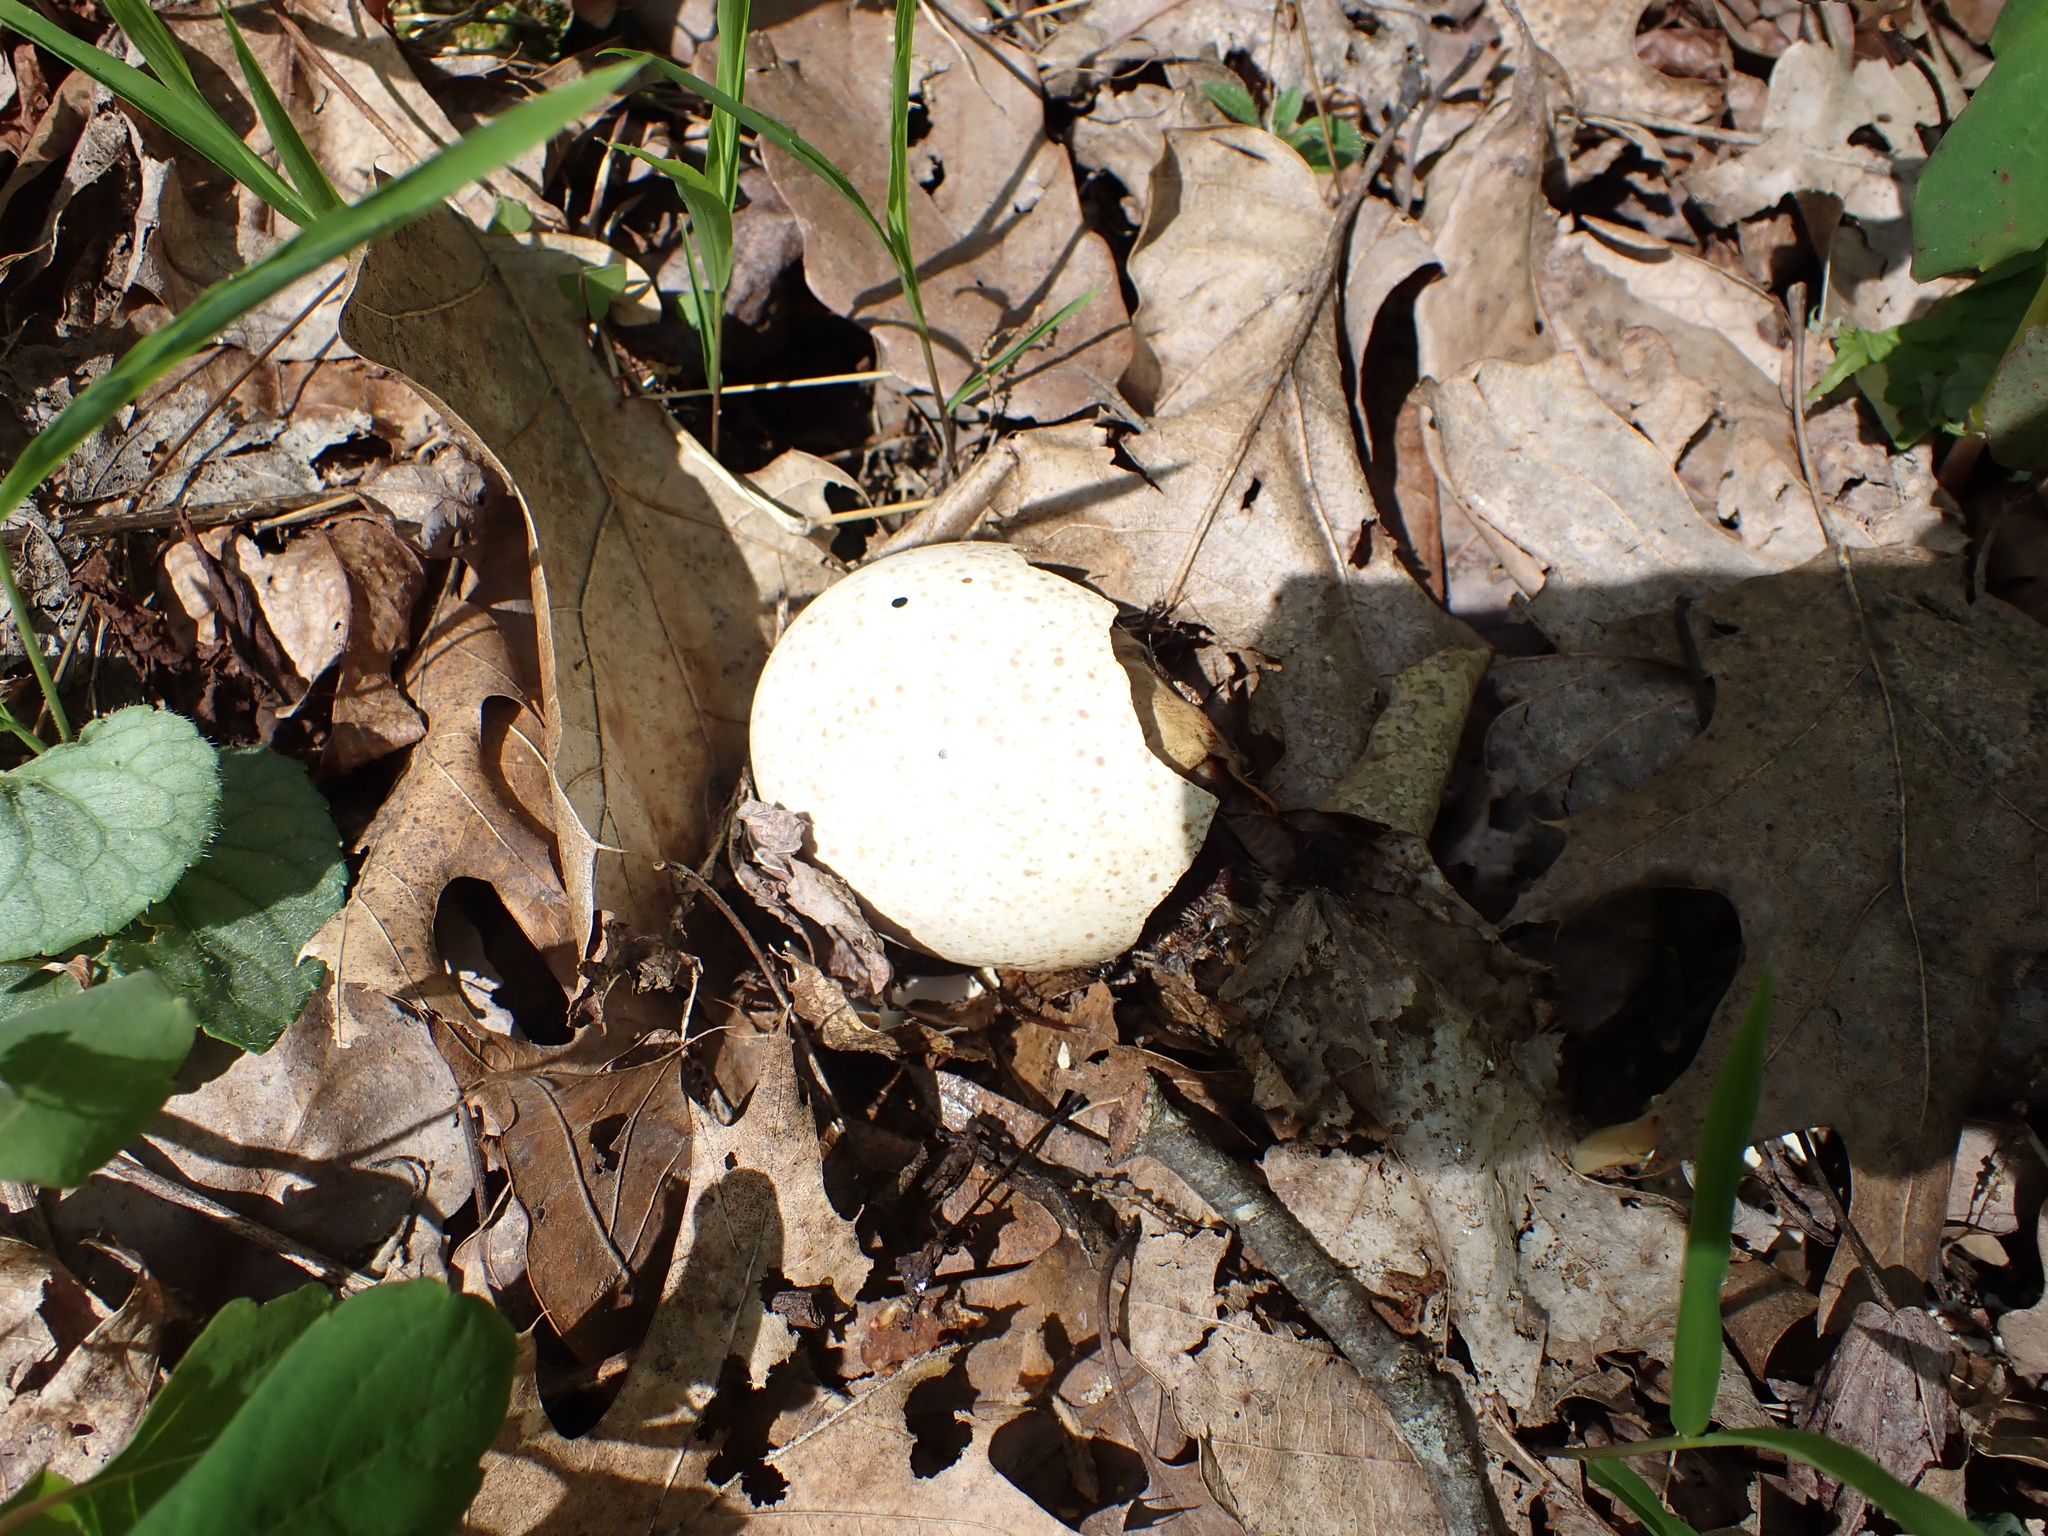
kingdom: Animalia
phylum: Chordata
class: Aves
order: Galliformes
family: Phasianidae
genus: Meleagris
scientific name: Meleagris gallopavo
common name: Wild turkey
